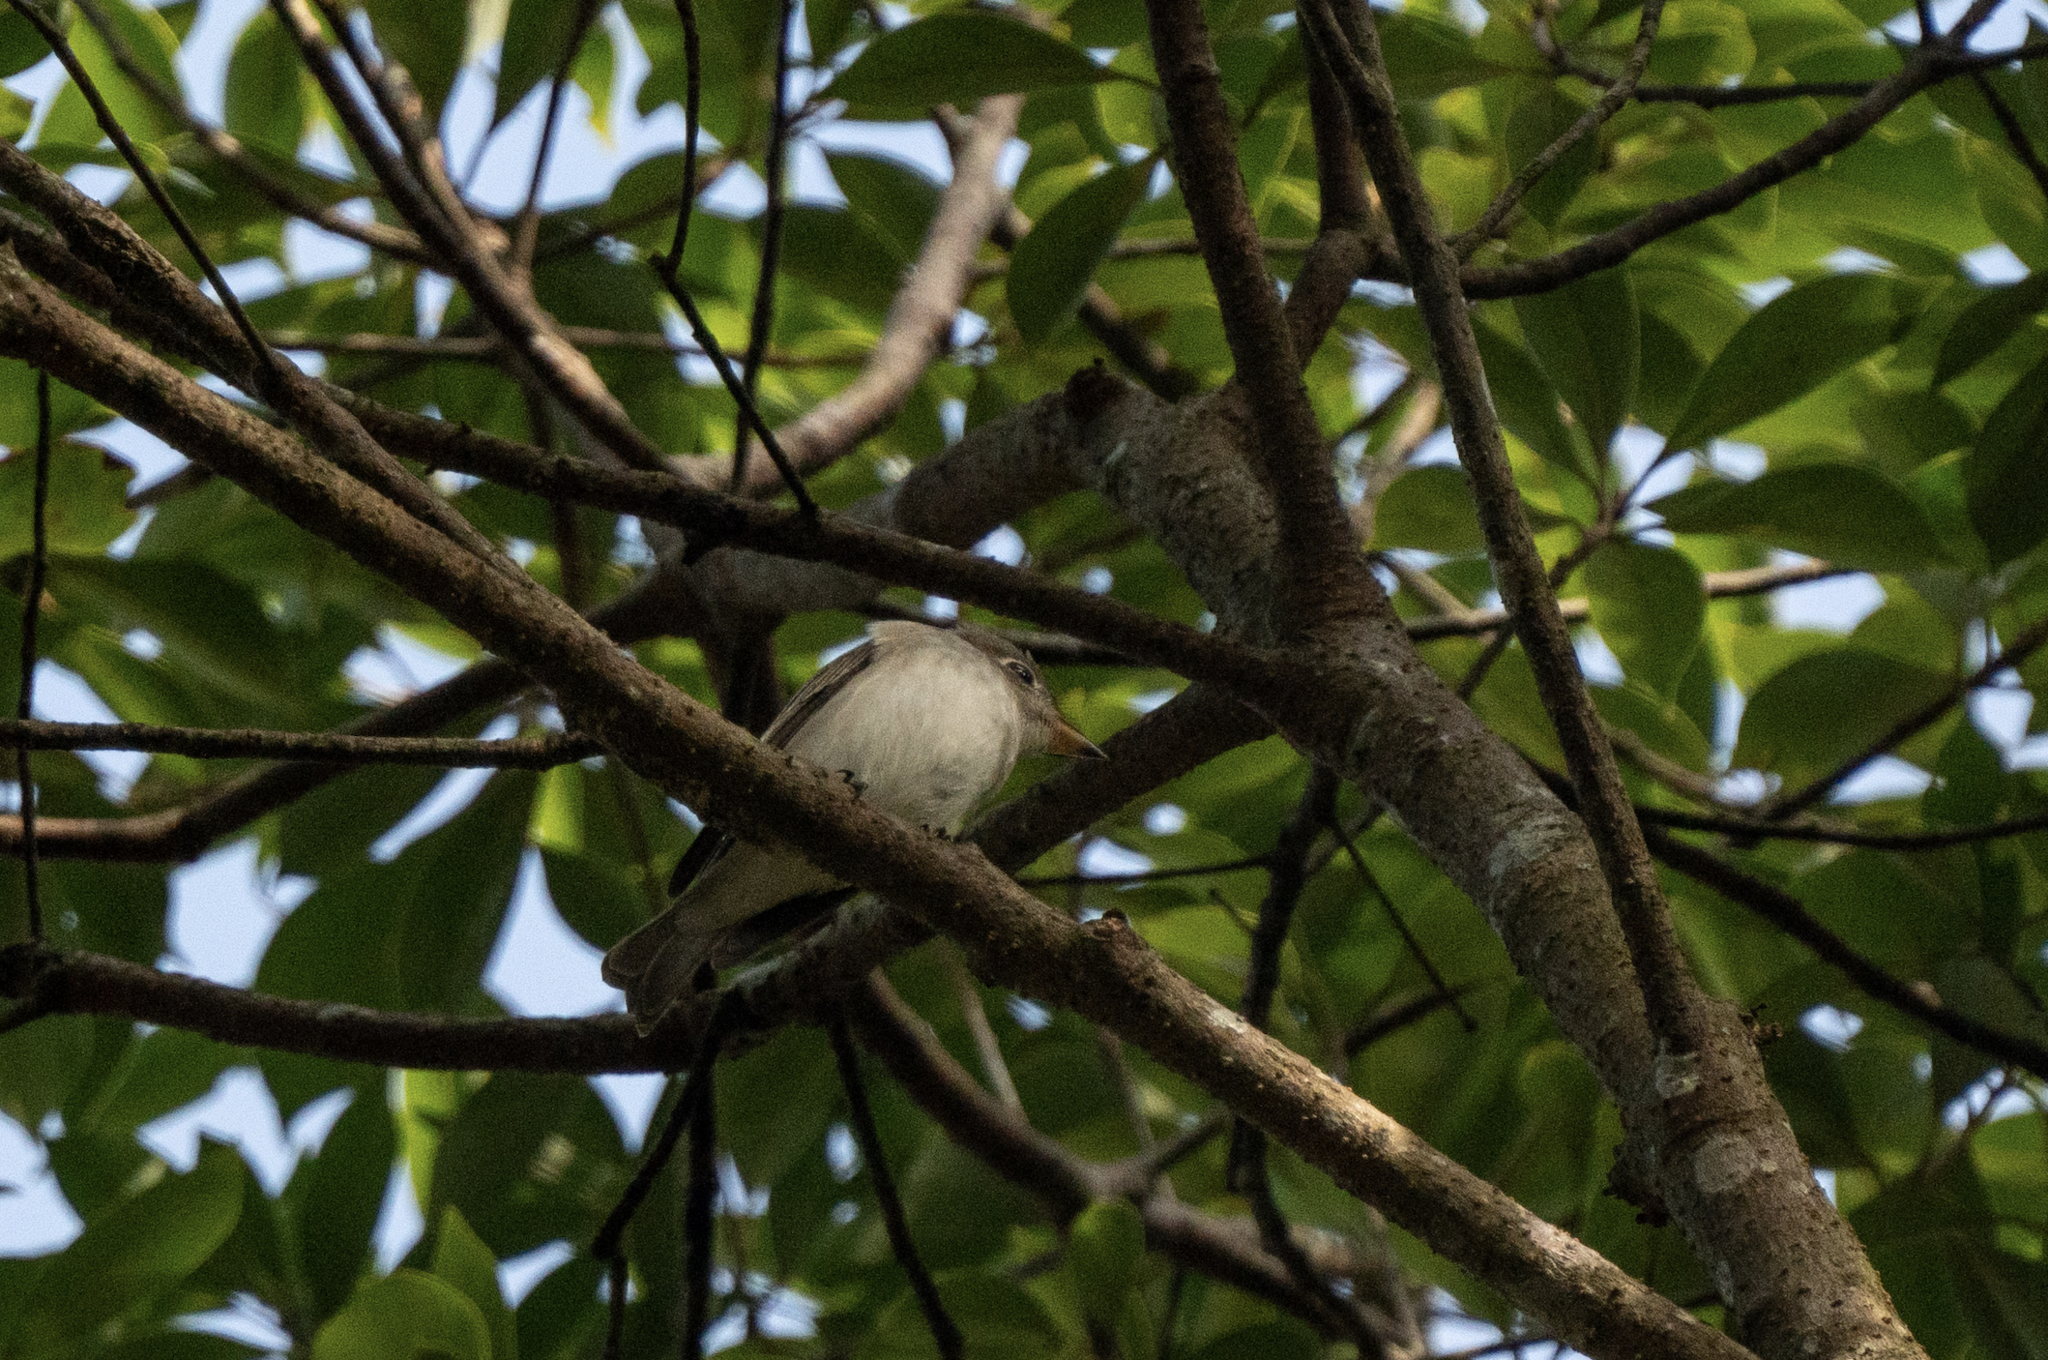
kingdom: Animalia
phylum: Chordata
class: Aves
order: Passeriformes
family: Muscicapidae
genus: Muscicapa
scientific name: Muscicapa latirostris
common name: Asian brown flycatcher
